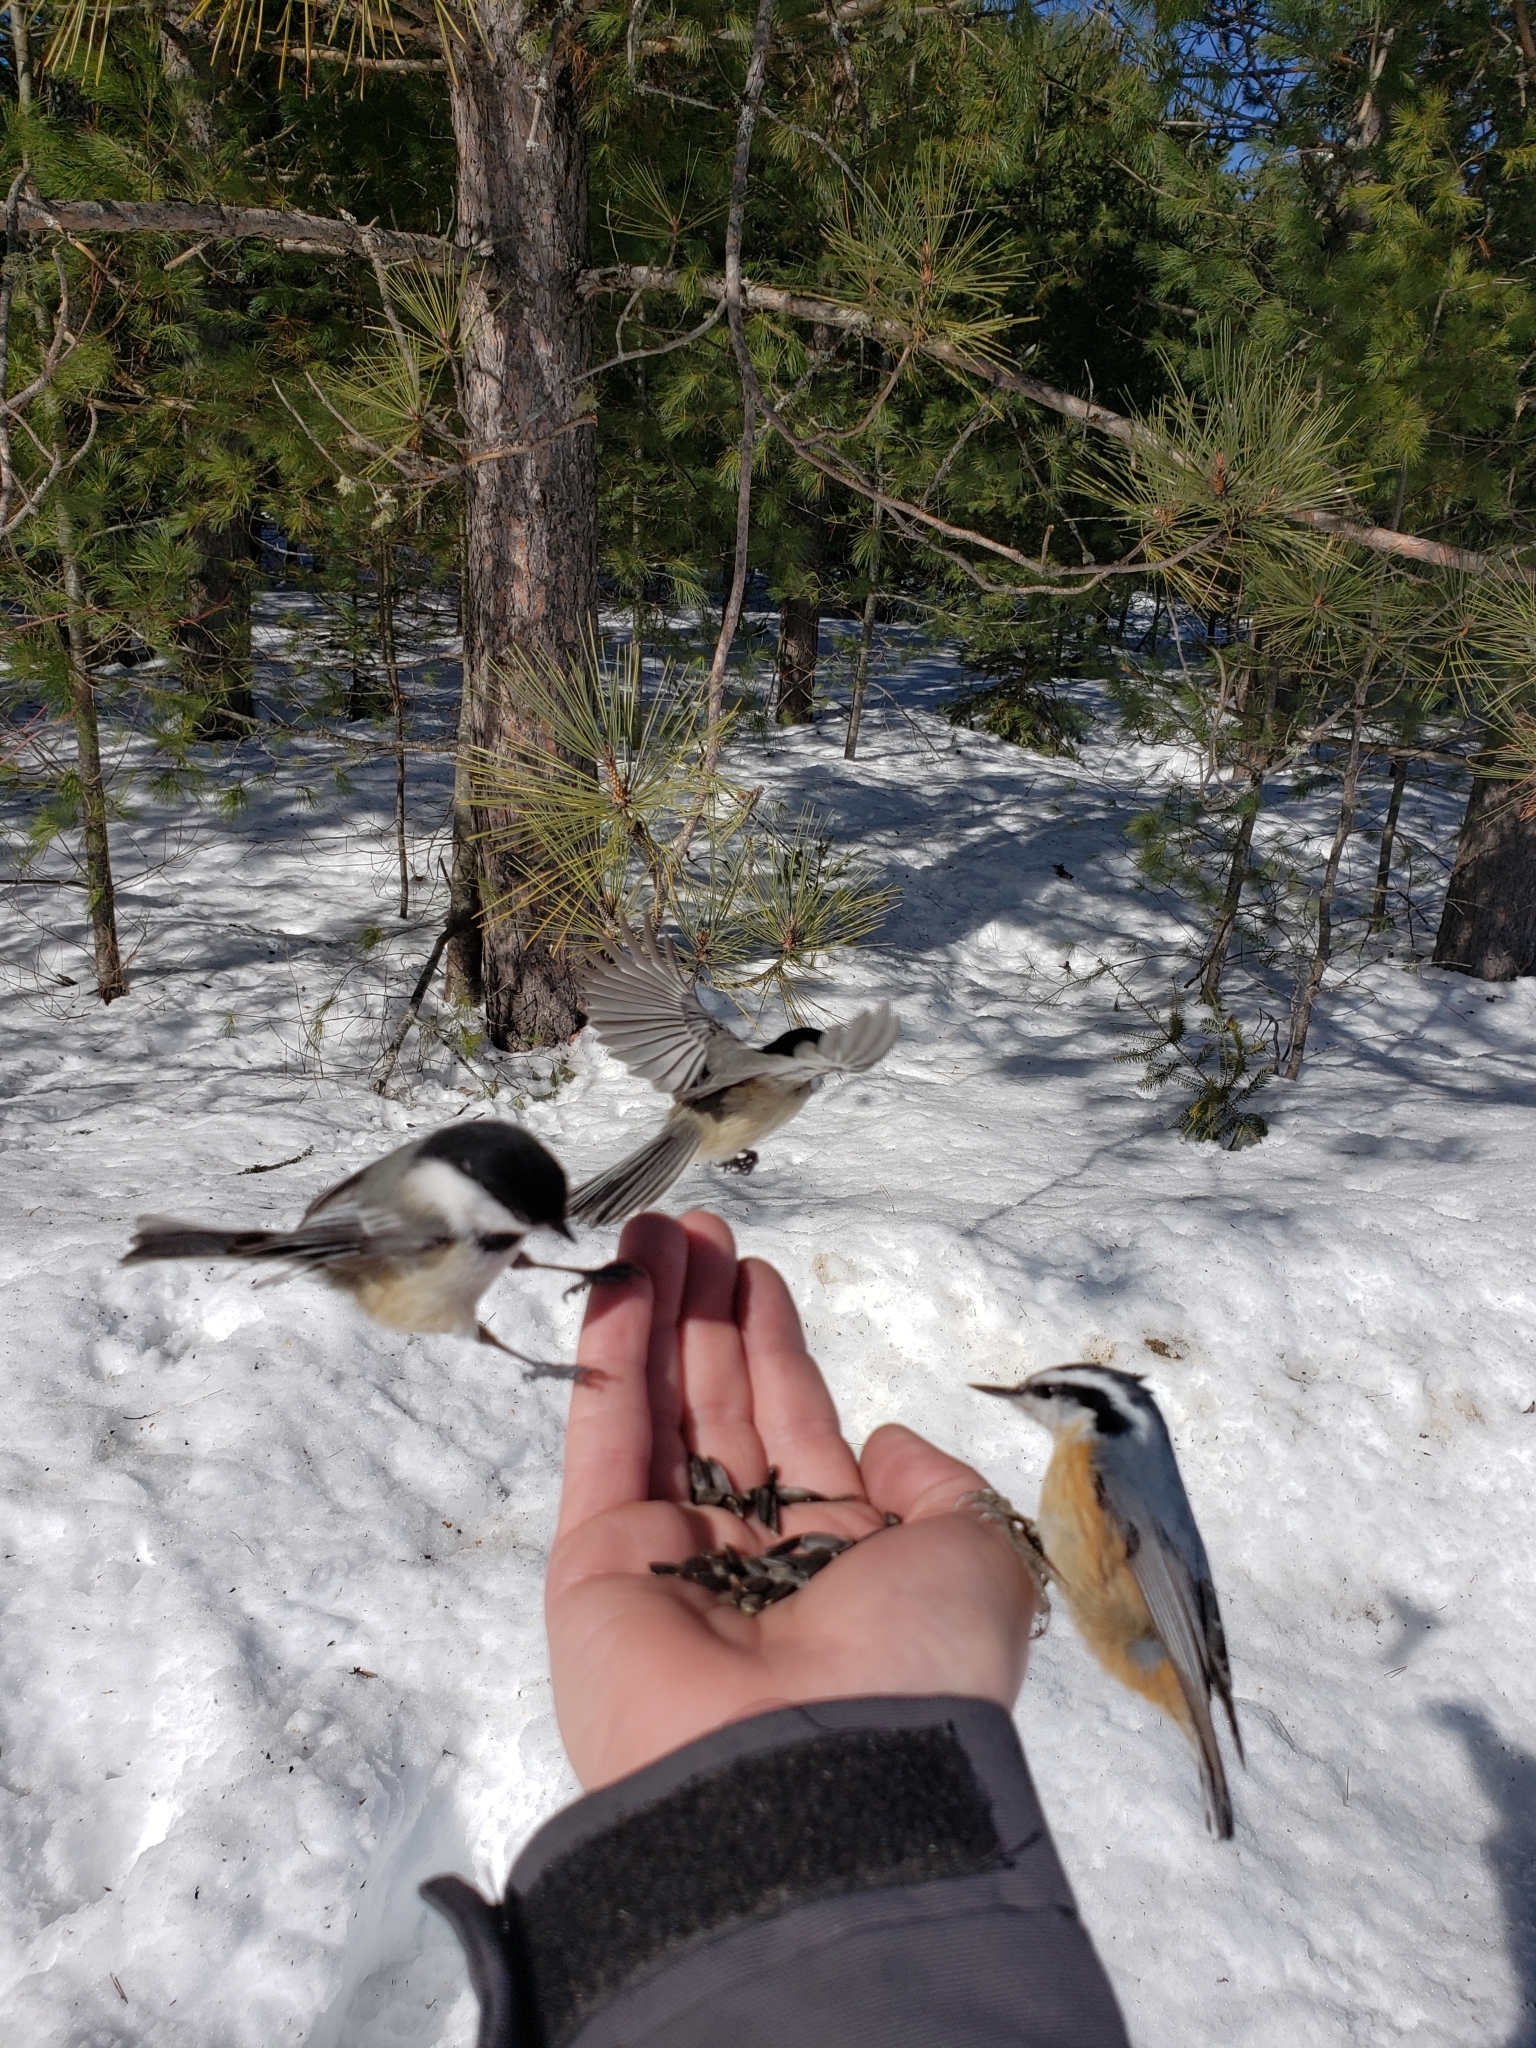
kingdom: Animalia
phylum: Chordata
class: Aves
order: Passeriformes
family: Sittidae
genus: Sitta
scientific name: Sitta canadensis
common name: Red-breasted nuthatch
